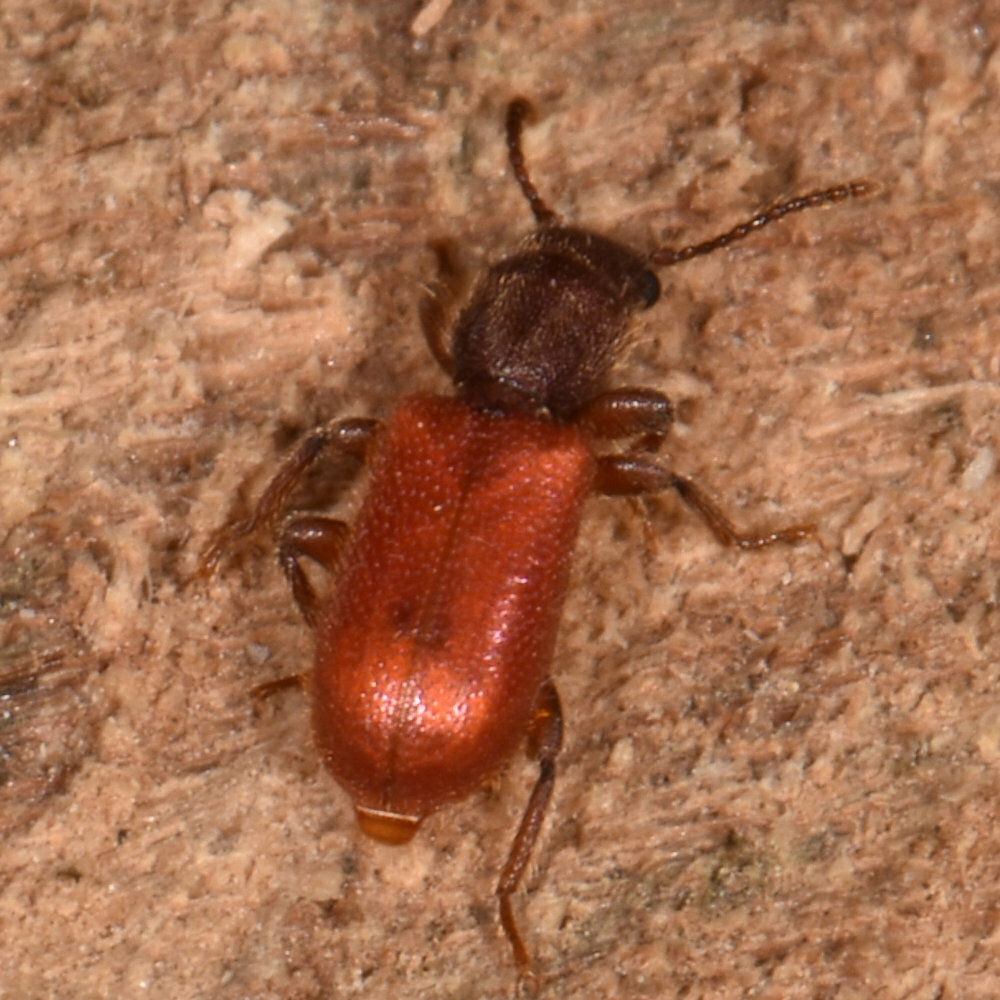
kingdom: Animalia
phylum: Arthropoda
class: Insecta
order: Coleoptera
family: Thanerocleridae
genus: Zenodosus
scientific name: Zenodosus sanguineus
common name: Blood-colored checkered beetle
